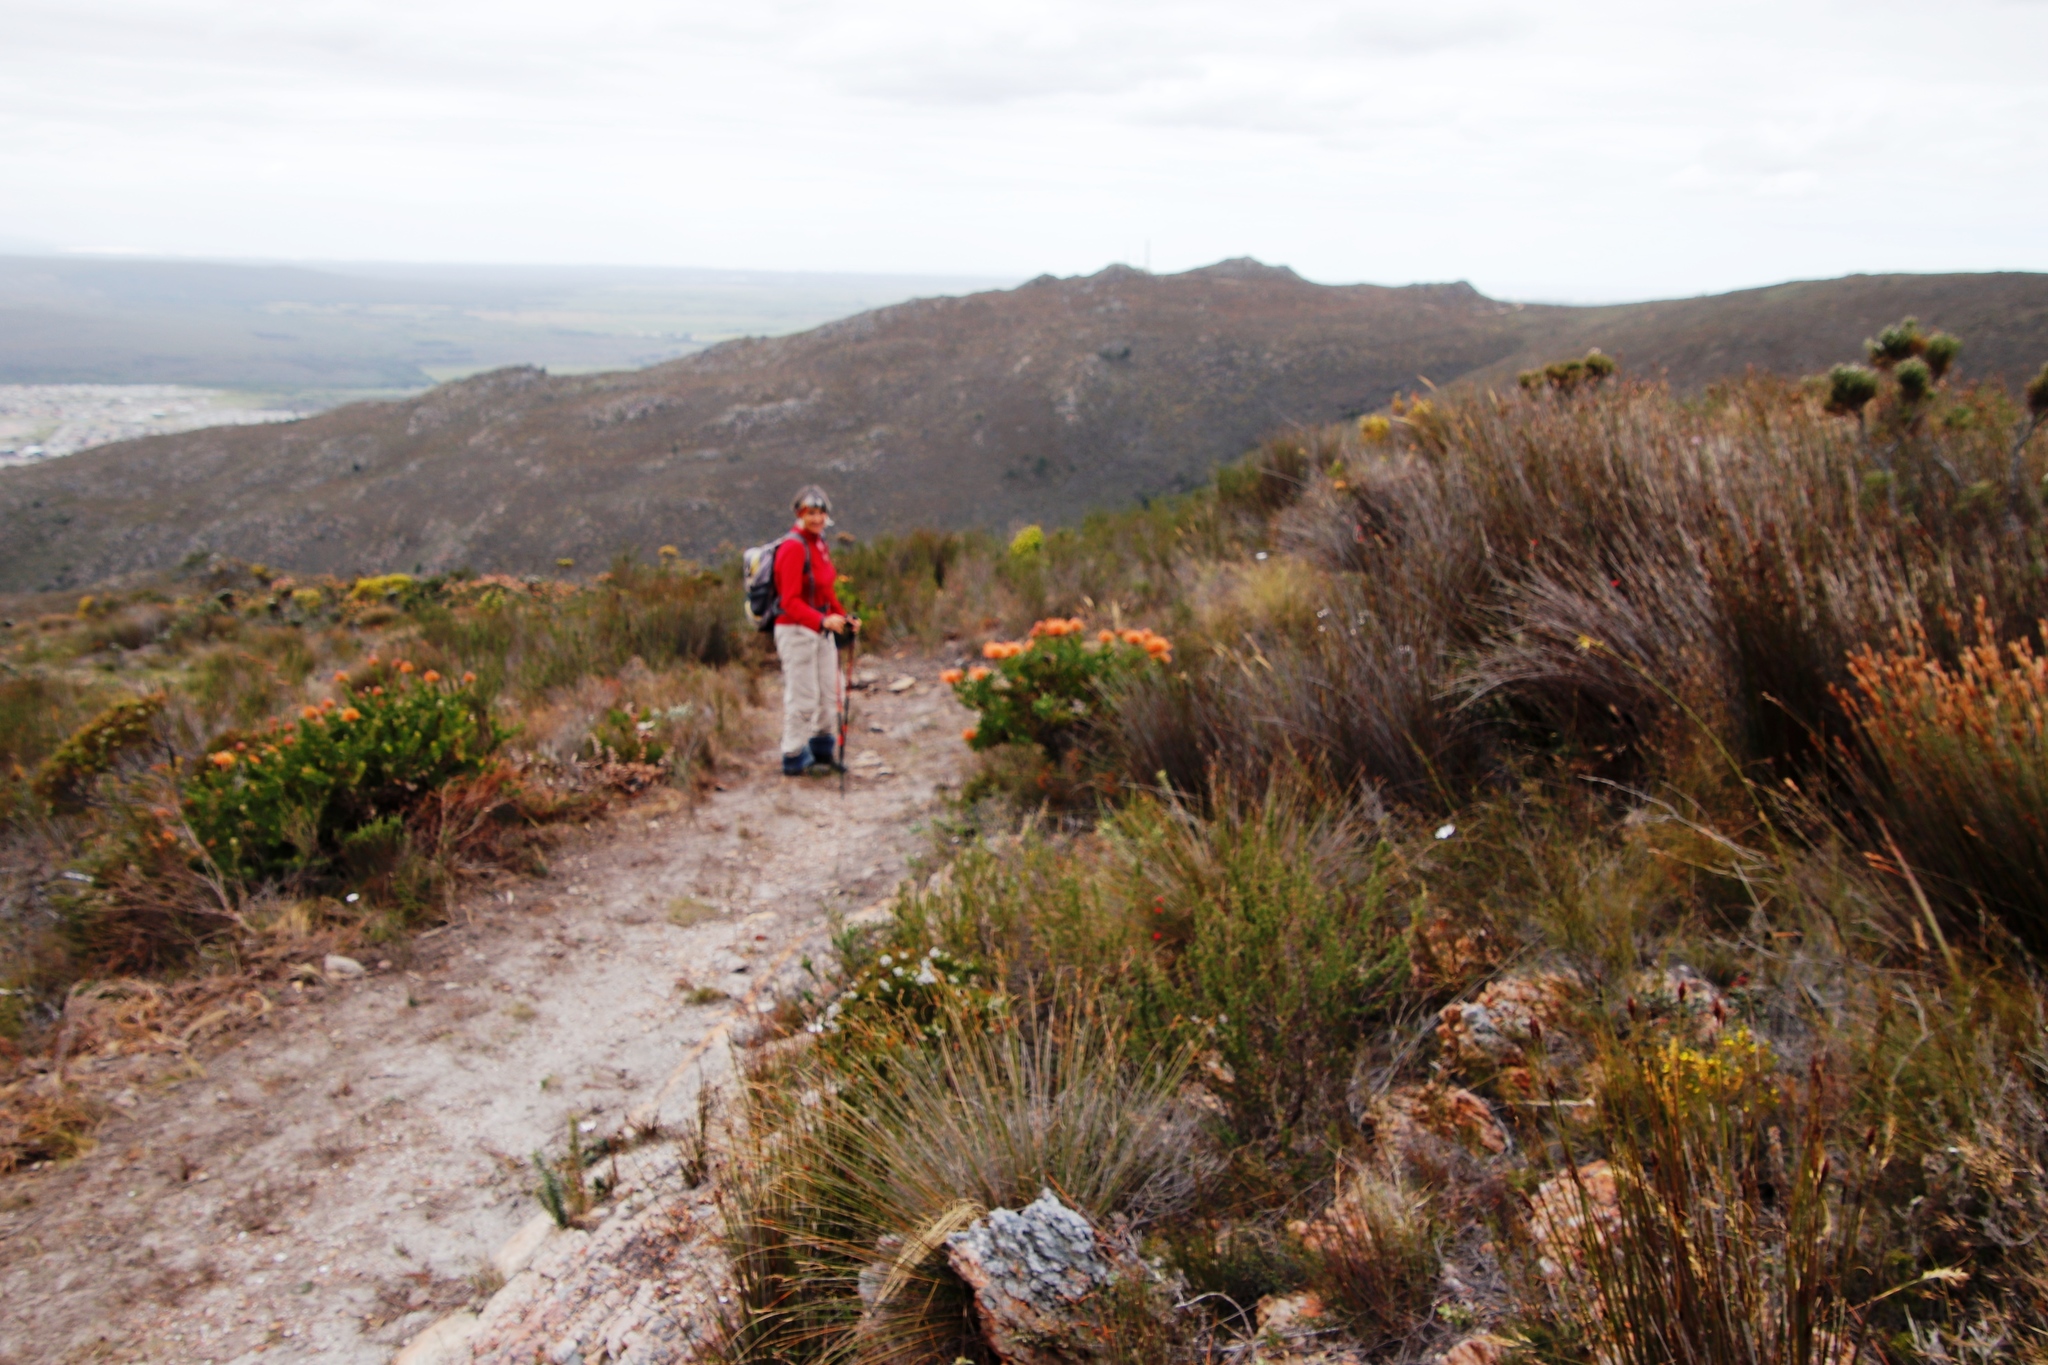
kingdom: Plantae
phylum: Tracheophyta
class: Magnoliopsida
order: Proteales
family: Proteaceae
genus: Leucospermum
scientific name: Leucospermum cordifolium
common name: Red pincushion-protea
